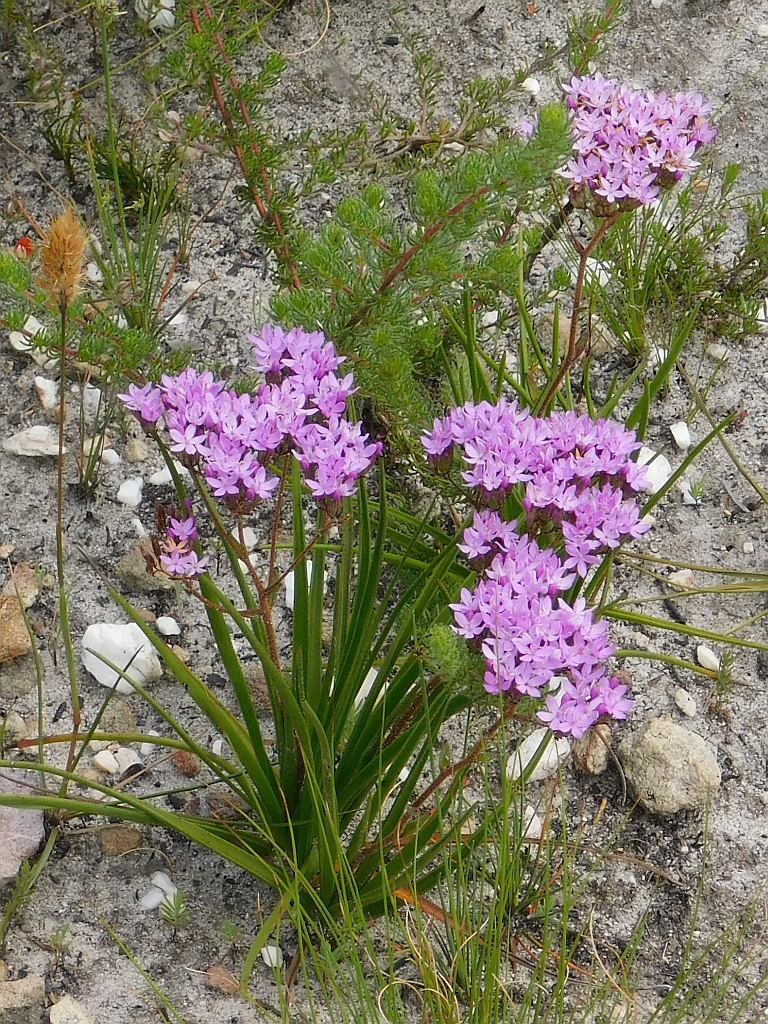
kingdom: Plantae
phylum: Tracheophyta
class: Magnoliopsida
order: Asterales
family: Asteraceae
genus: Corymbium
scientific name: Corymbium africanum
